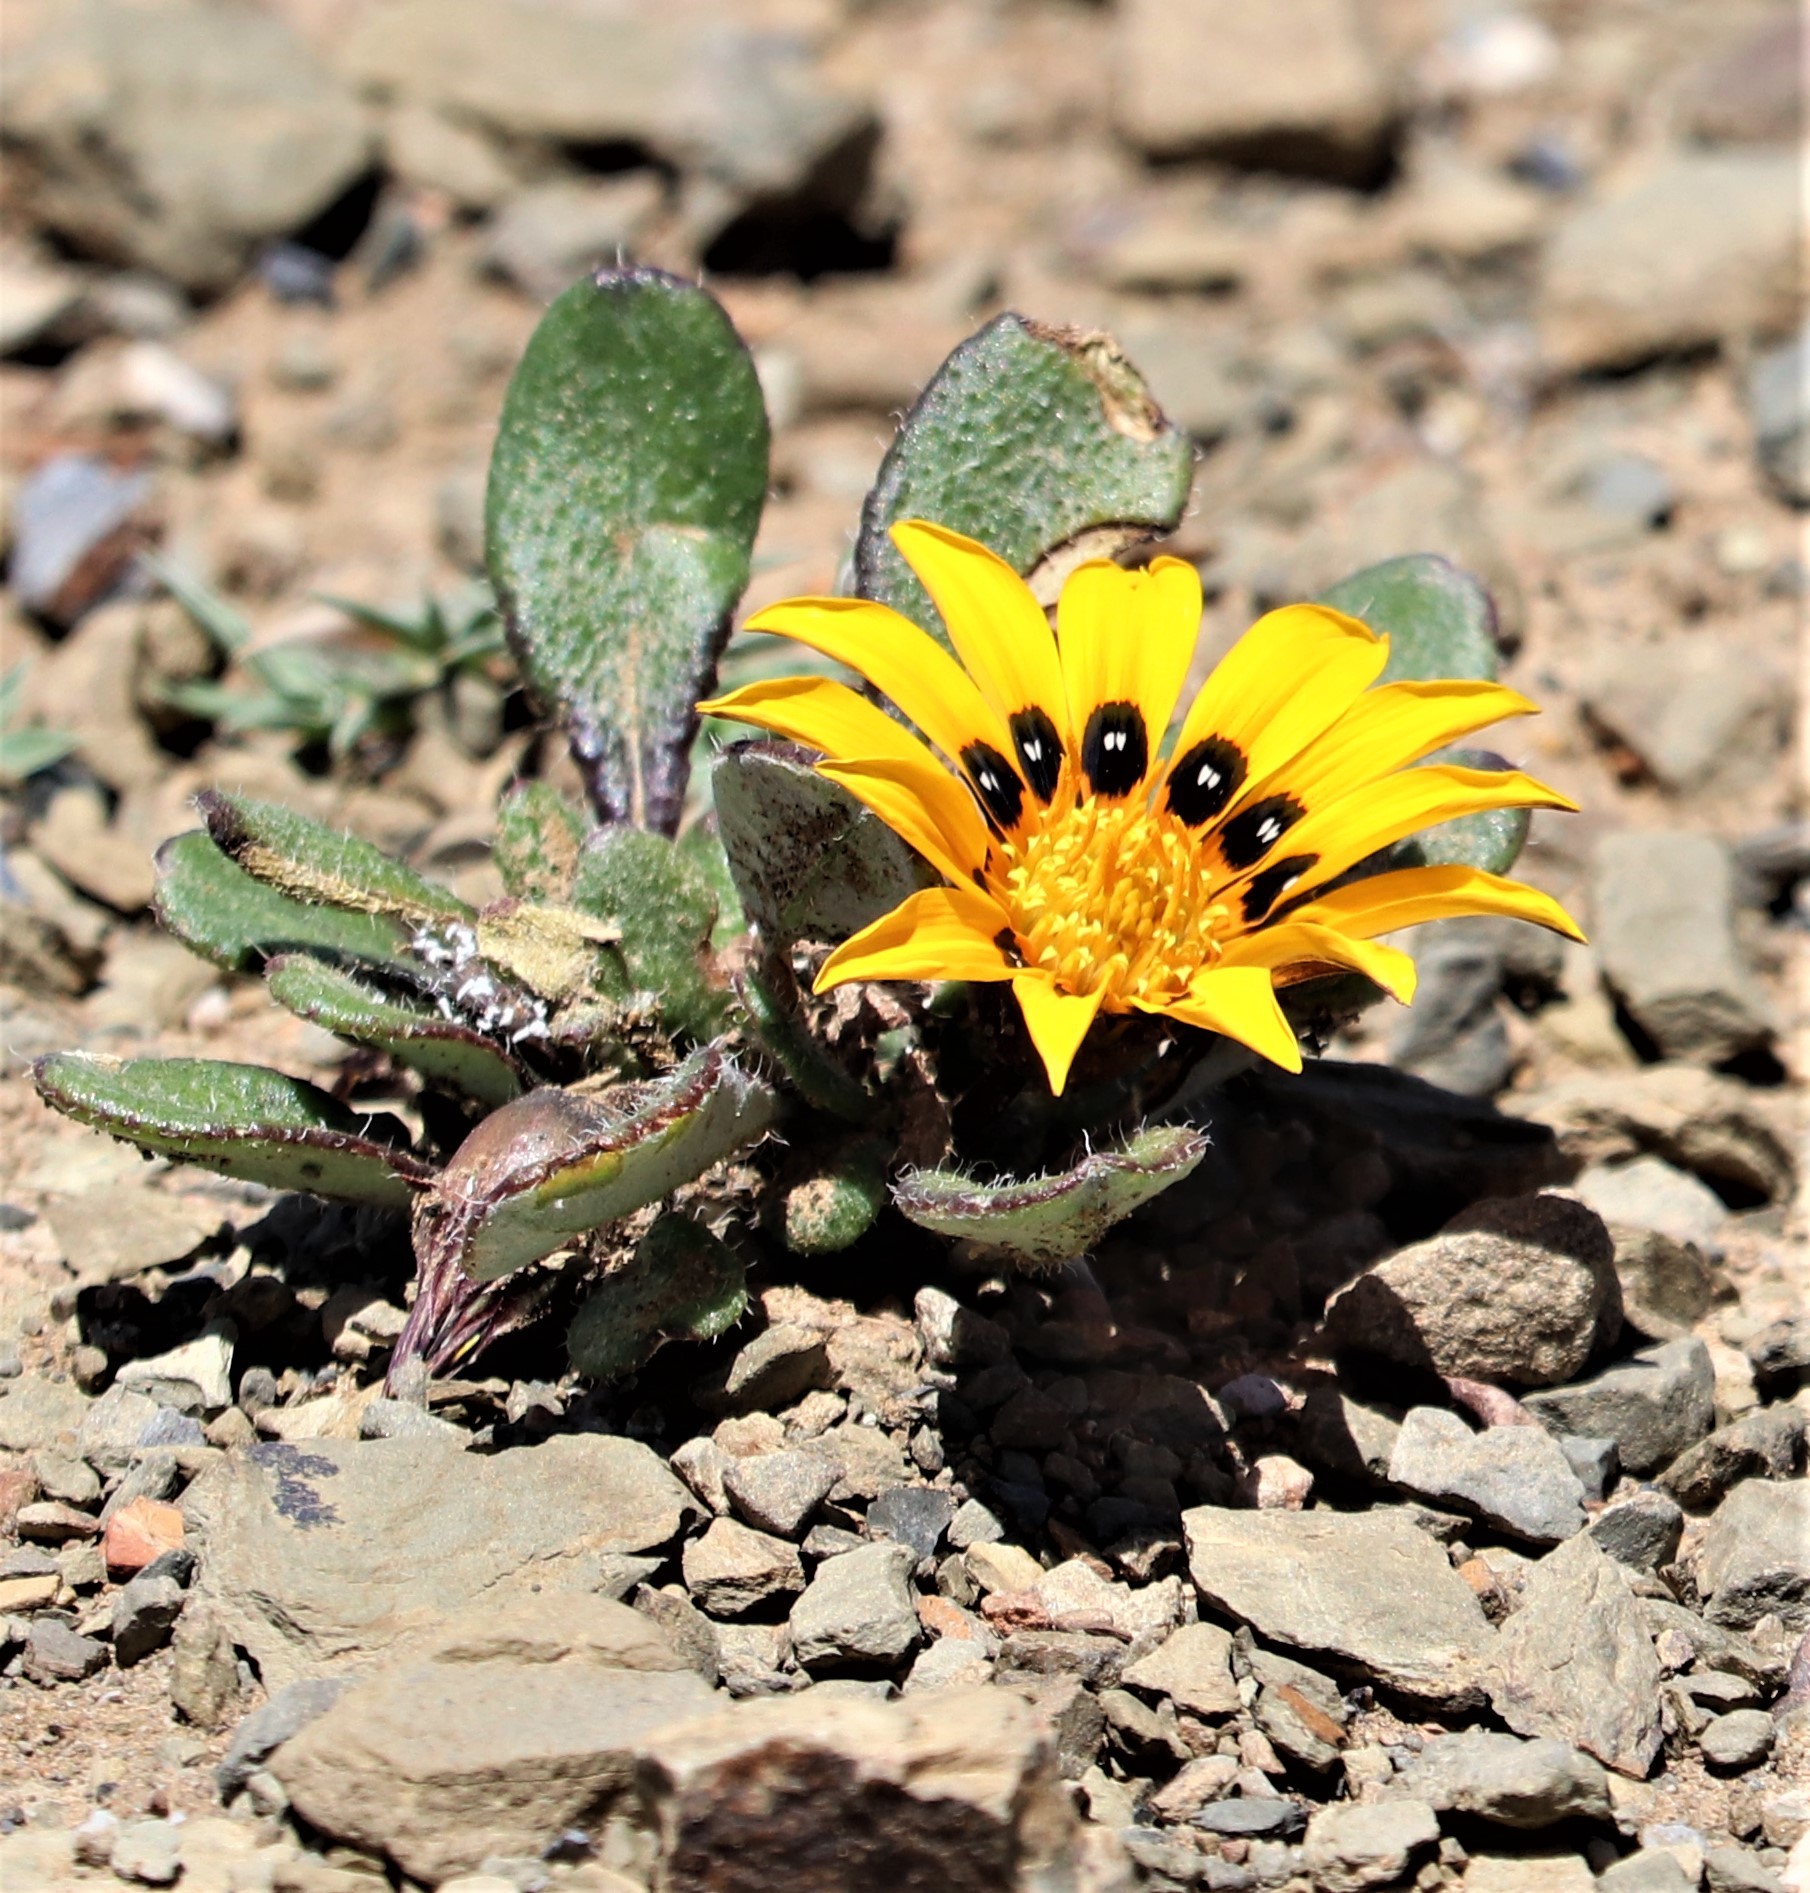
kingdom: Plantae
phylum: Tracheophyta
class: Magnoliopsida
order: Asterales
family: Asteraceae
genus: Gazania
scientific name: Gazania heterochaeta
